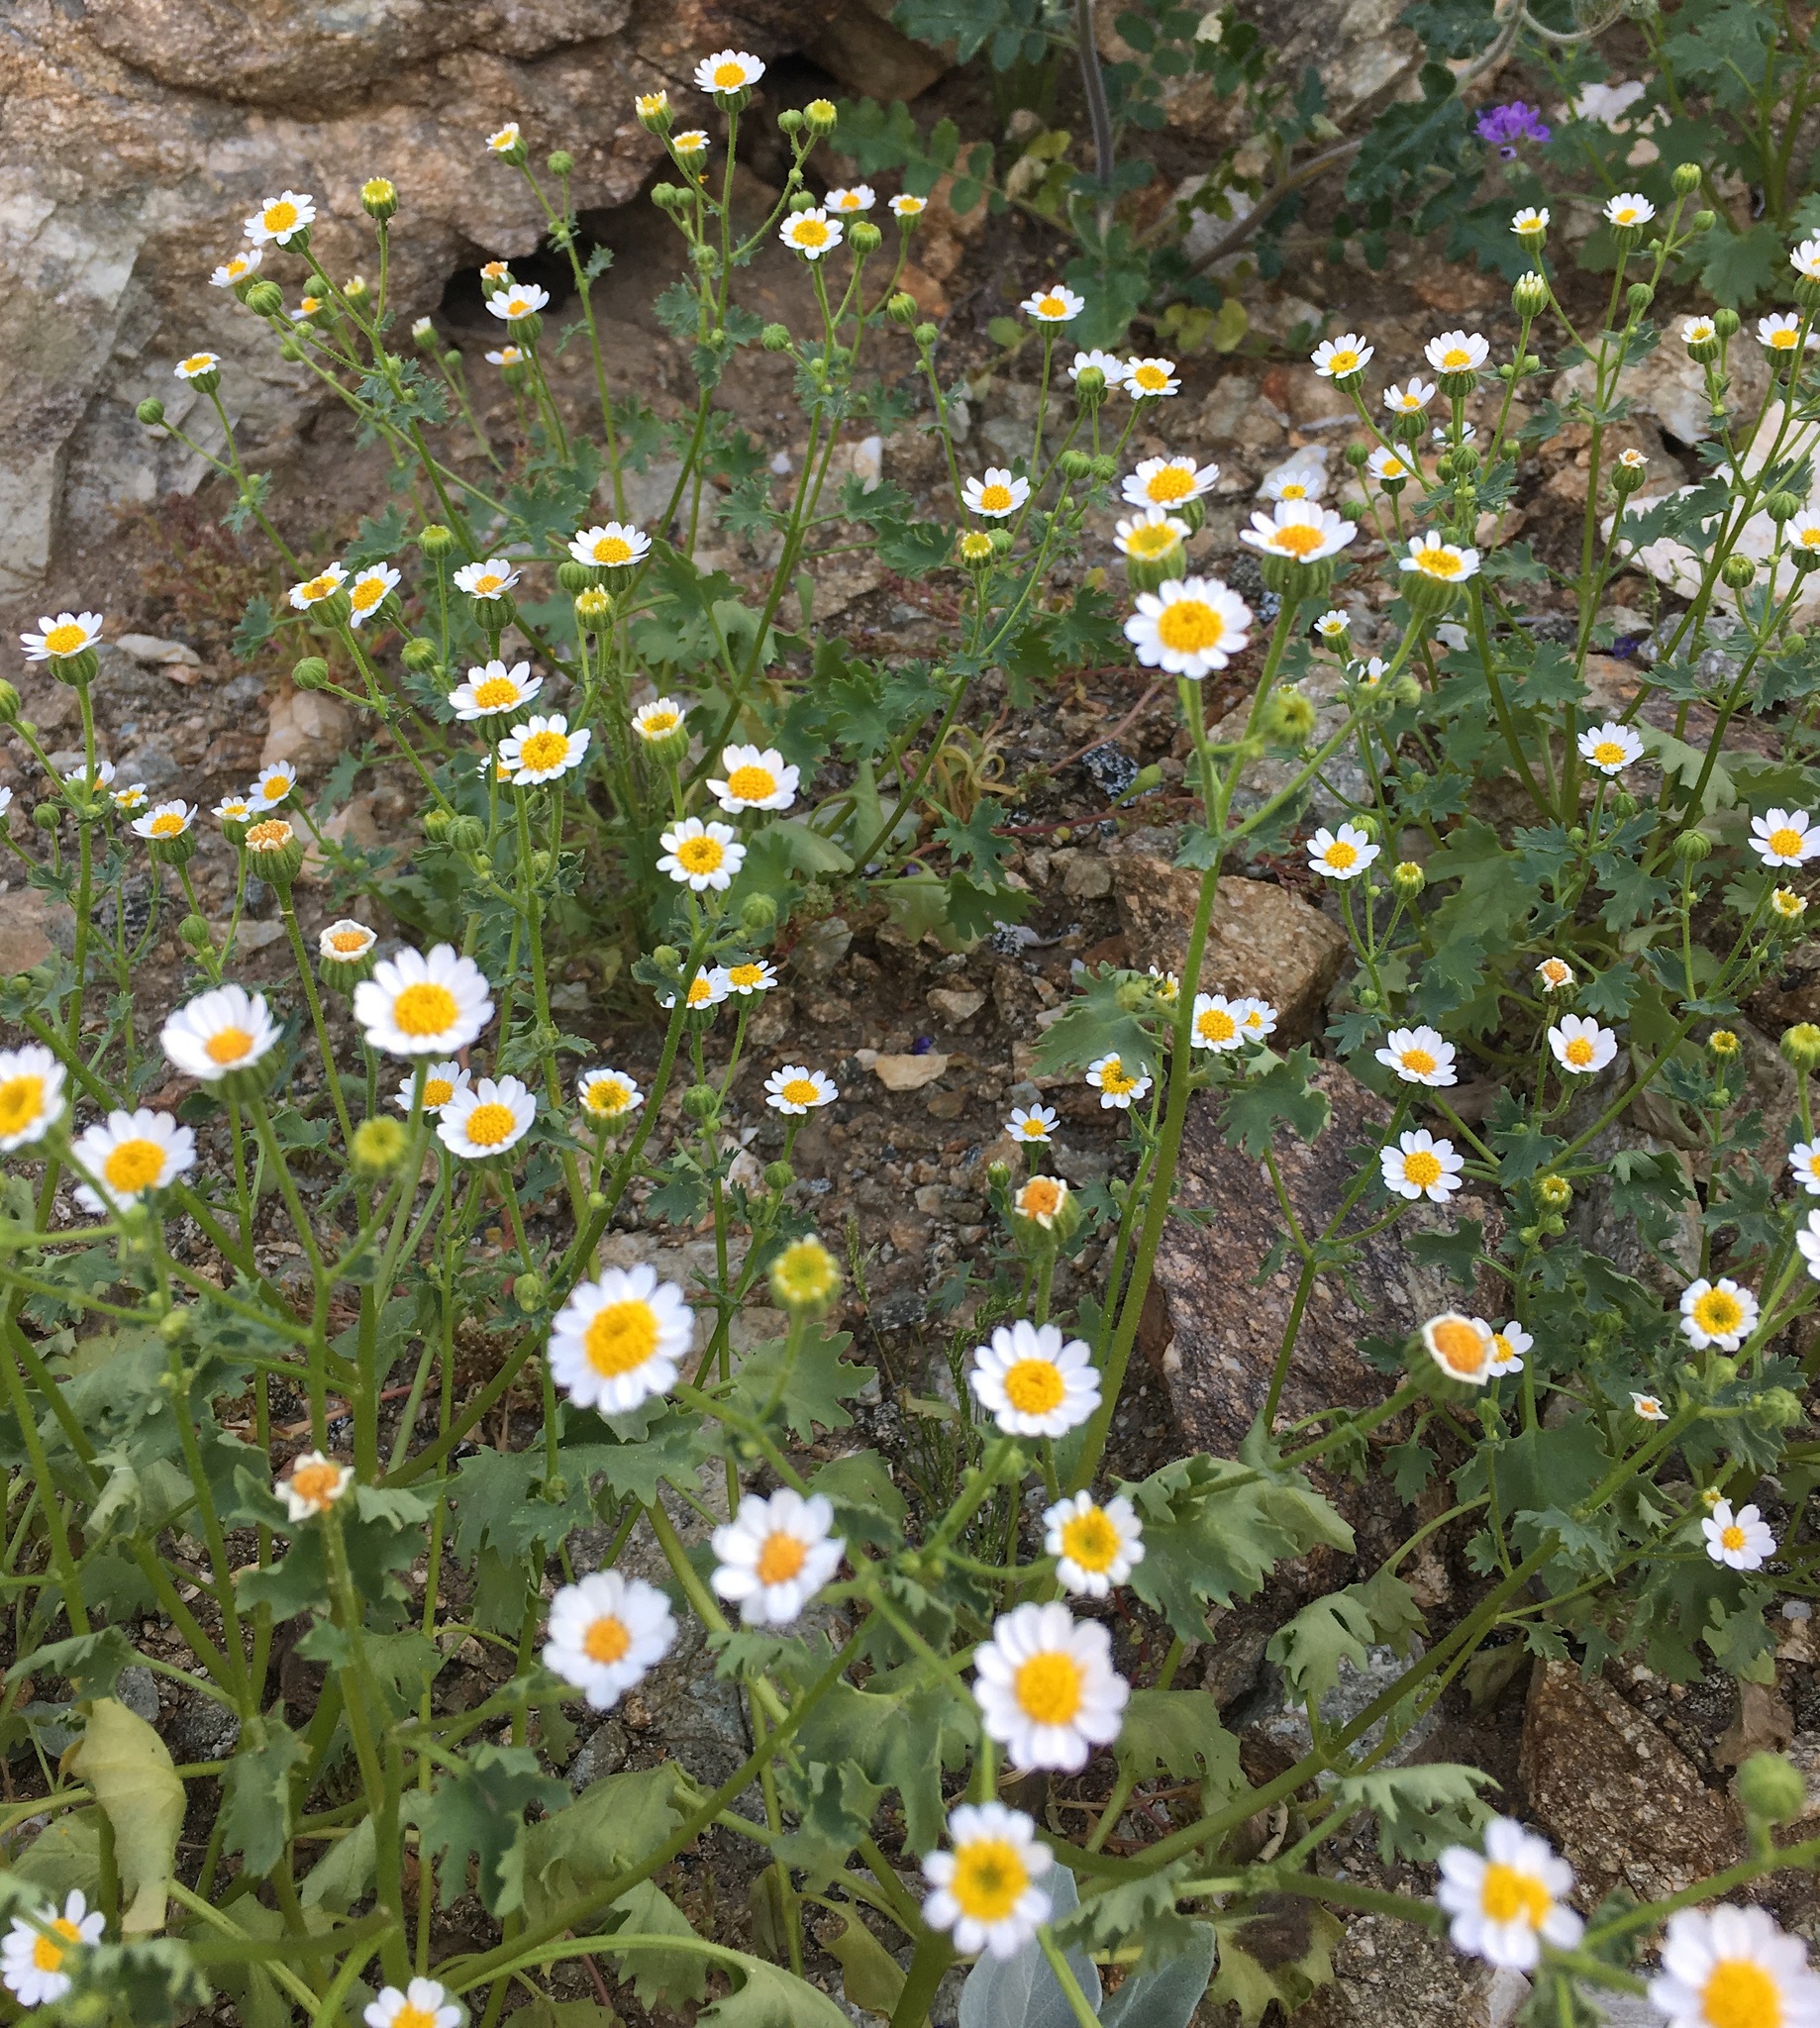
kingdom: Plantae
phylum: Tracheophyta
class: Magnoliopsida
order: Asterales
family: Asteraceae
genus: Laphamia
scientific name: Laphamia emoryi
